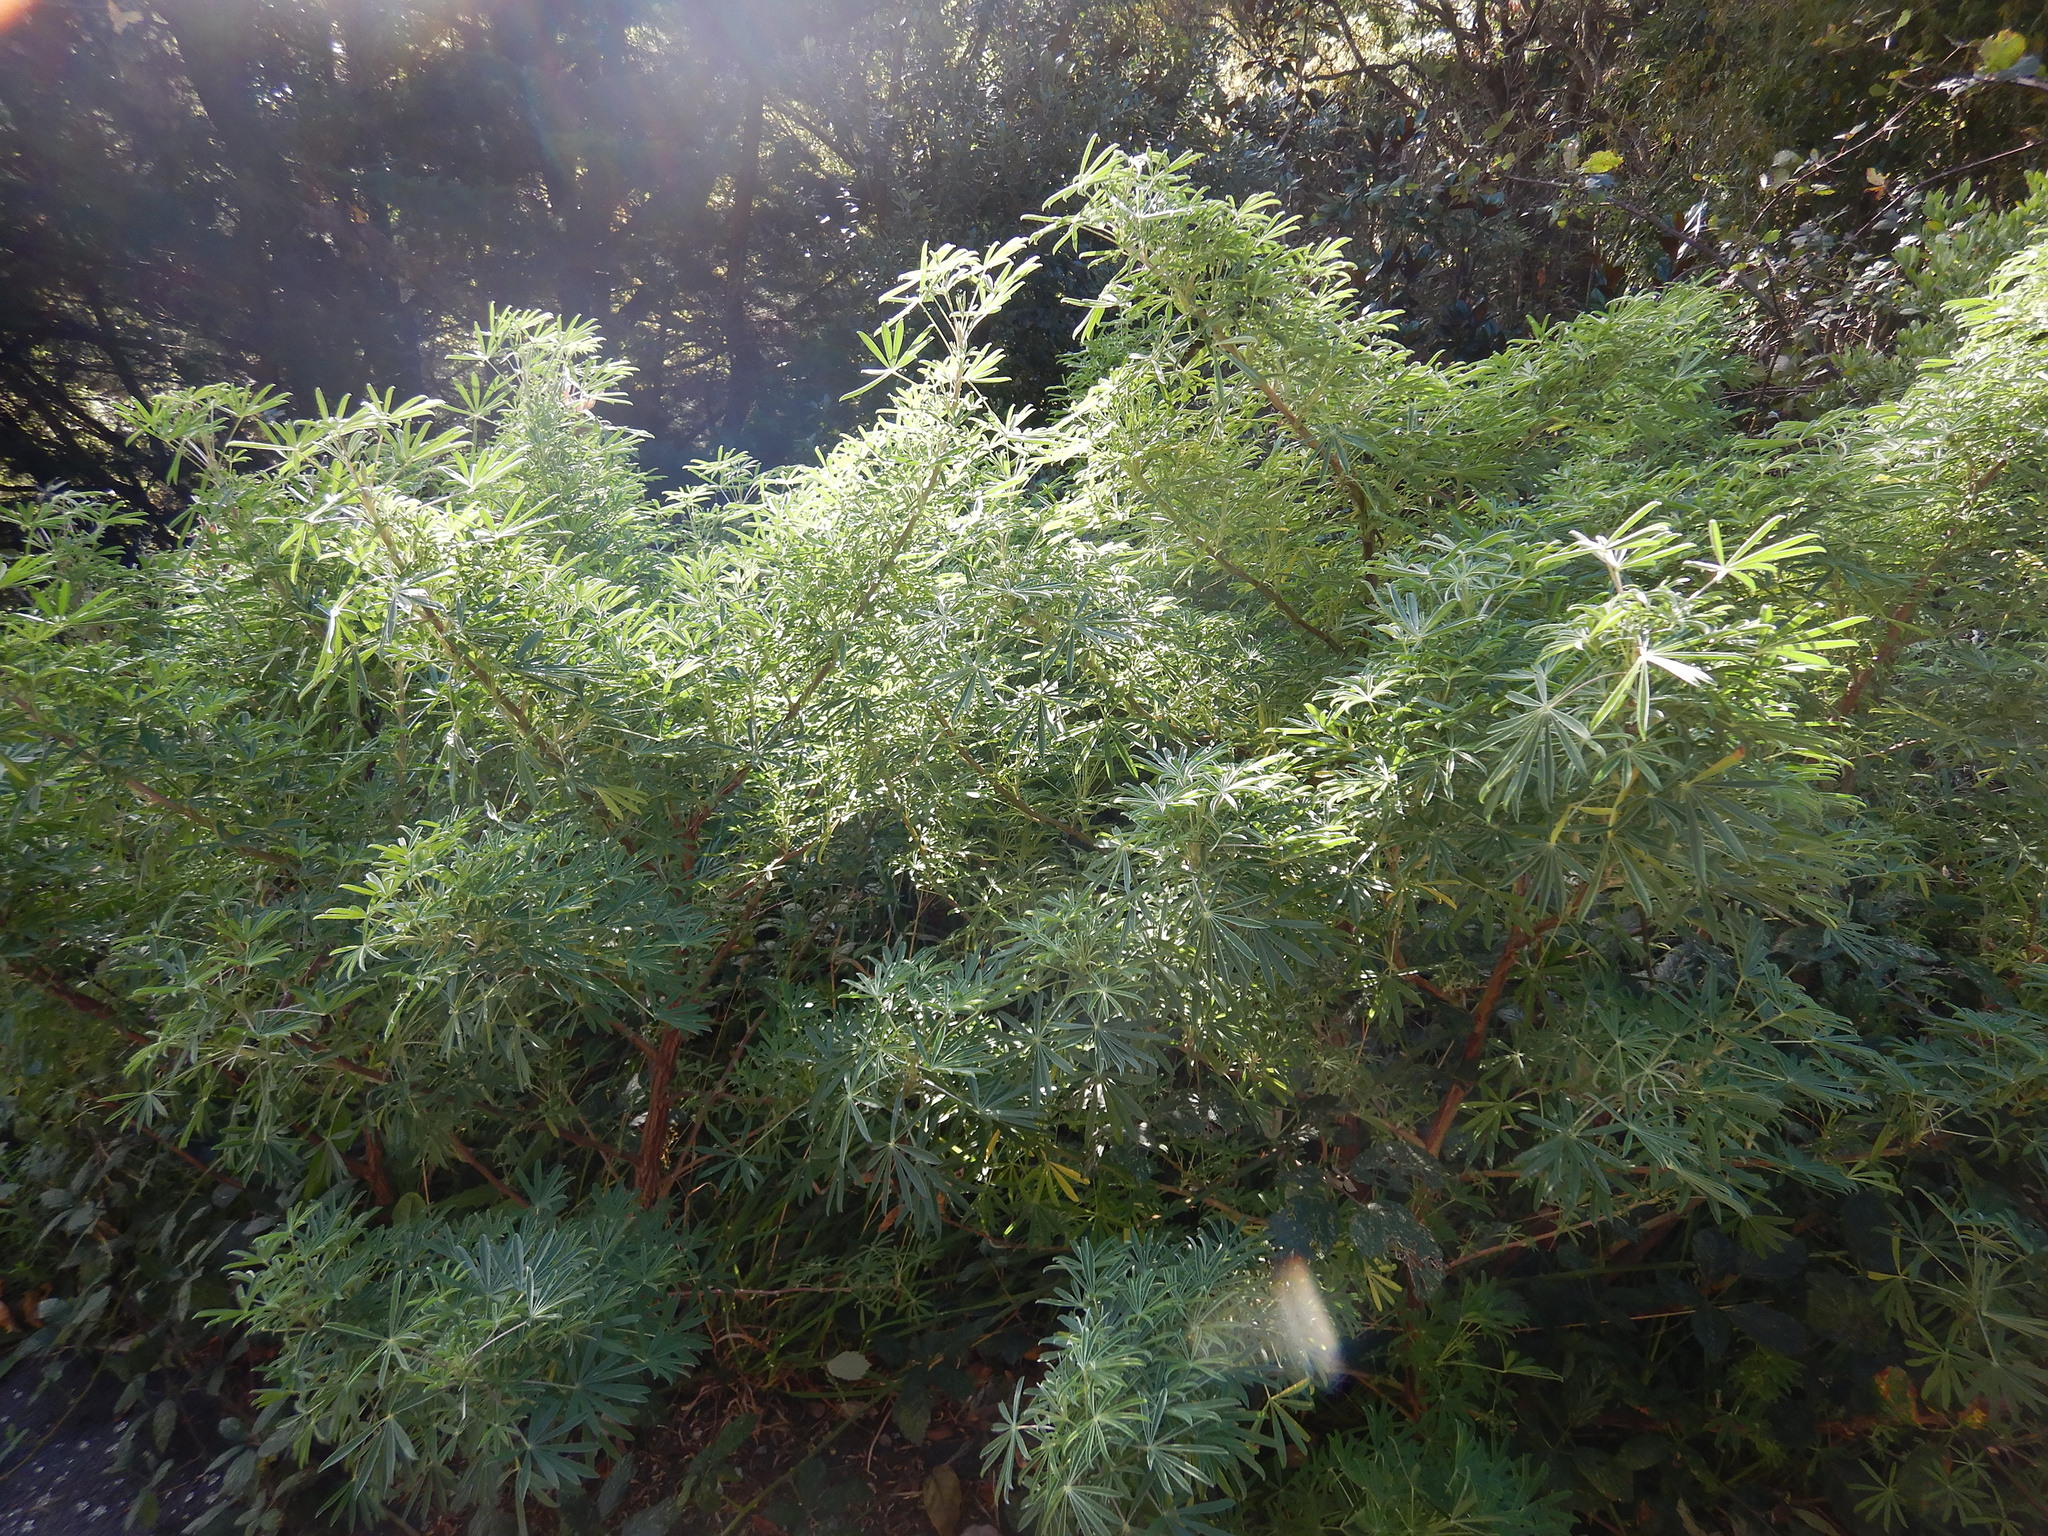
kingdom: Plantae
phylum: Tracheophyta
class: Magnoliopsida
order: Fabales
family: Fabaceae
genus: Lupinus
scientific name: Lupinus arboreus
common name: Yellow bush lupine
